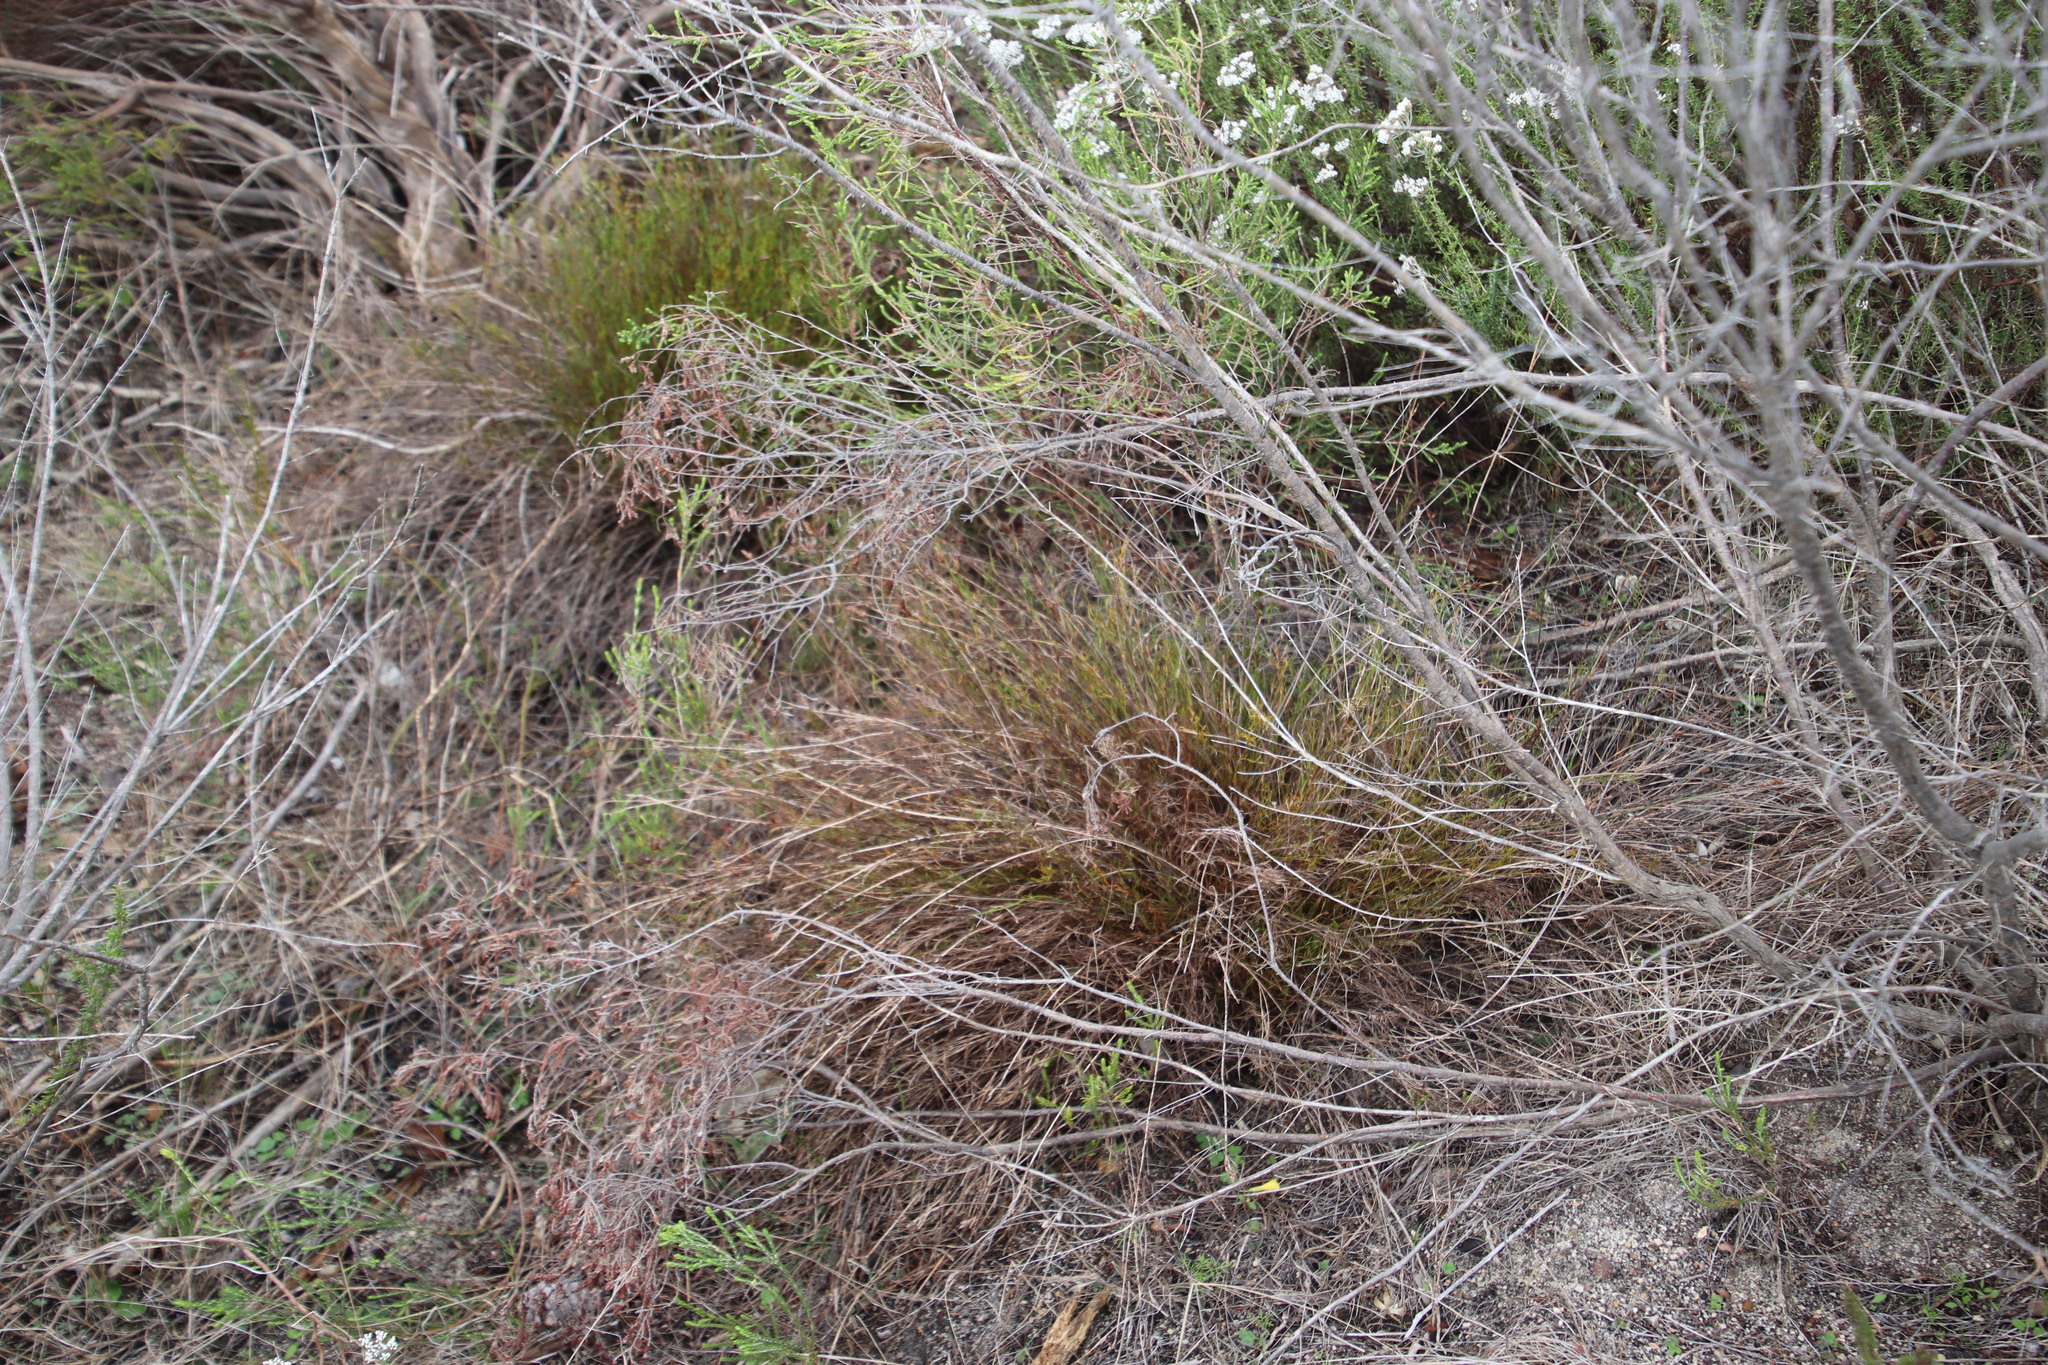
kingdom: Plantae
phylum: Tracheophyta
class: Liliopsida
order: Poales
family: Restionaceae
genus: Restio
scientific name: Restio capensis
